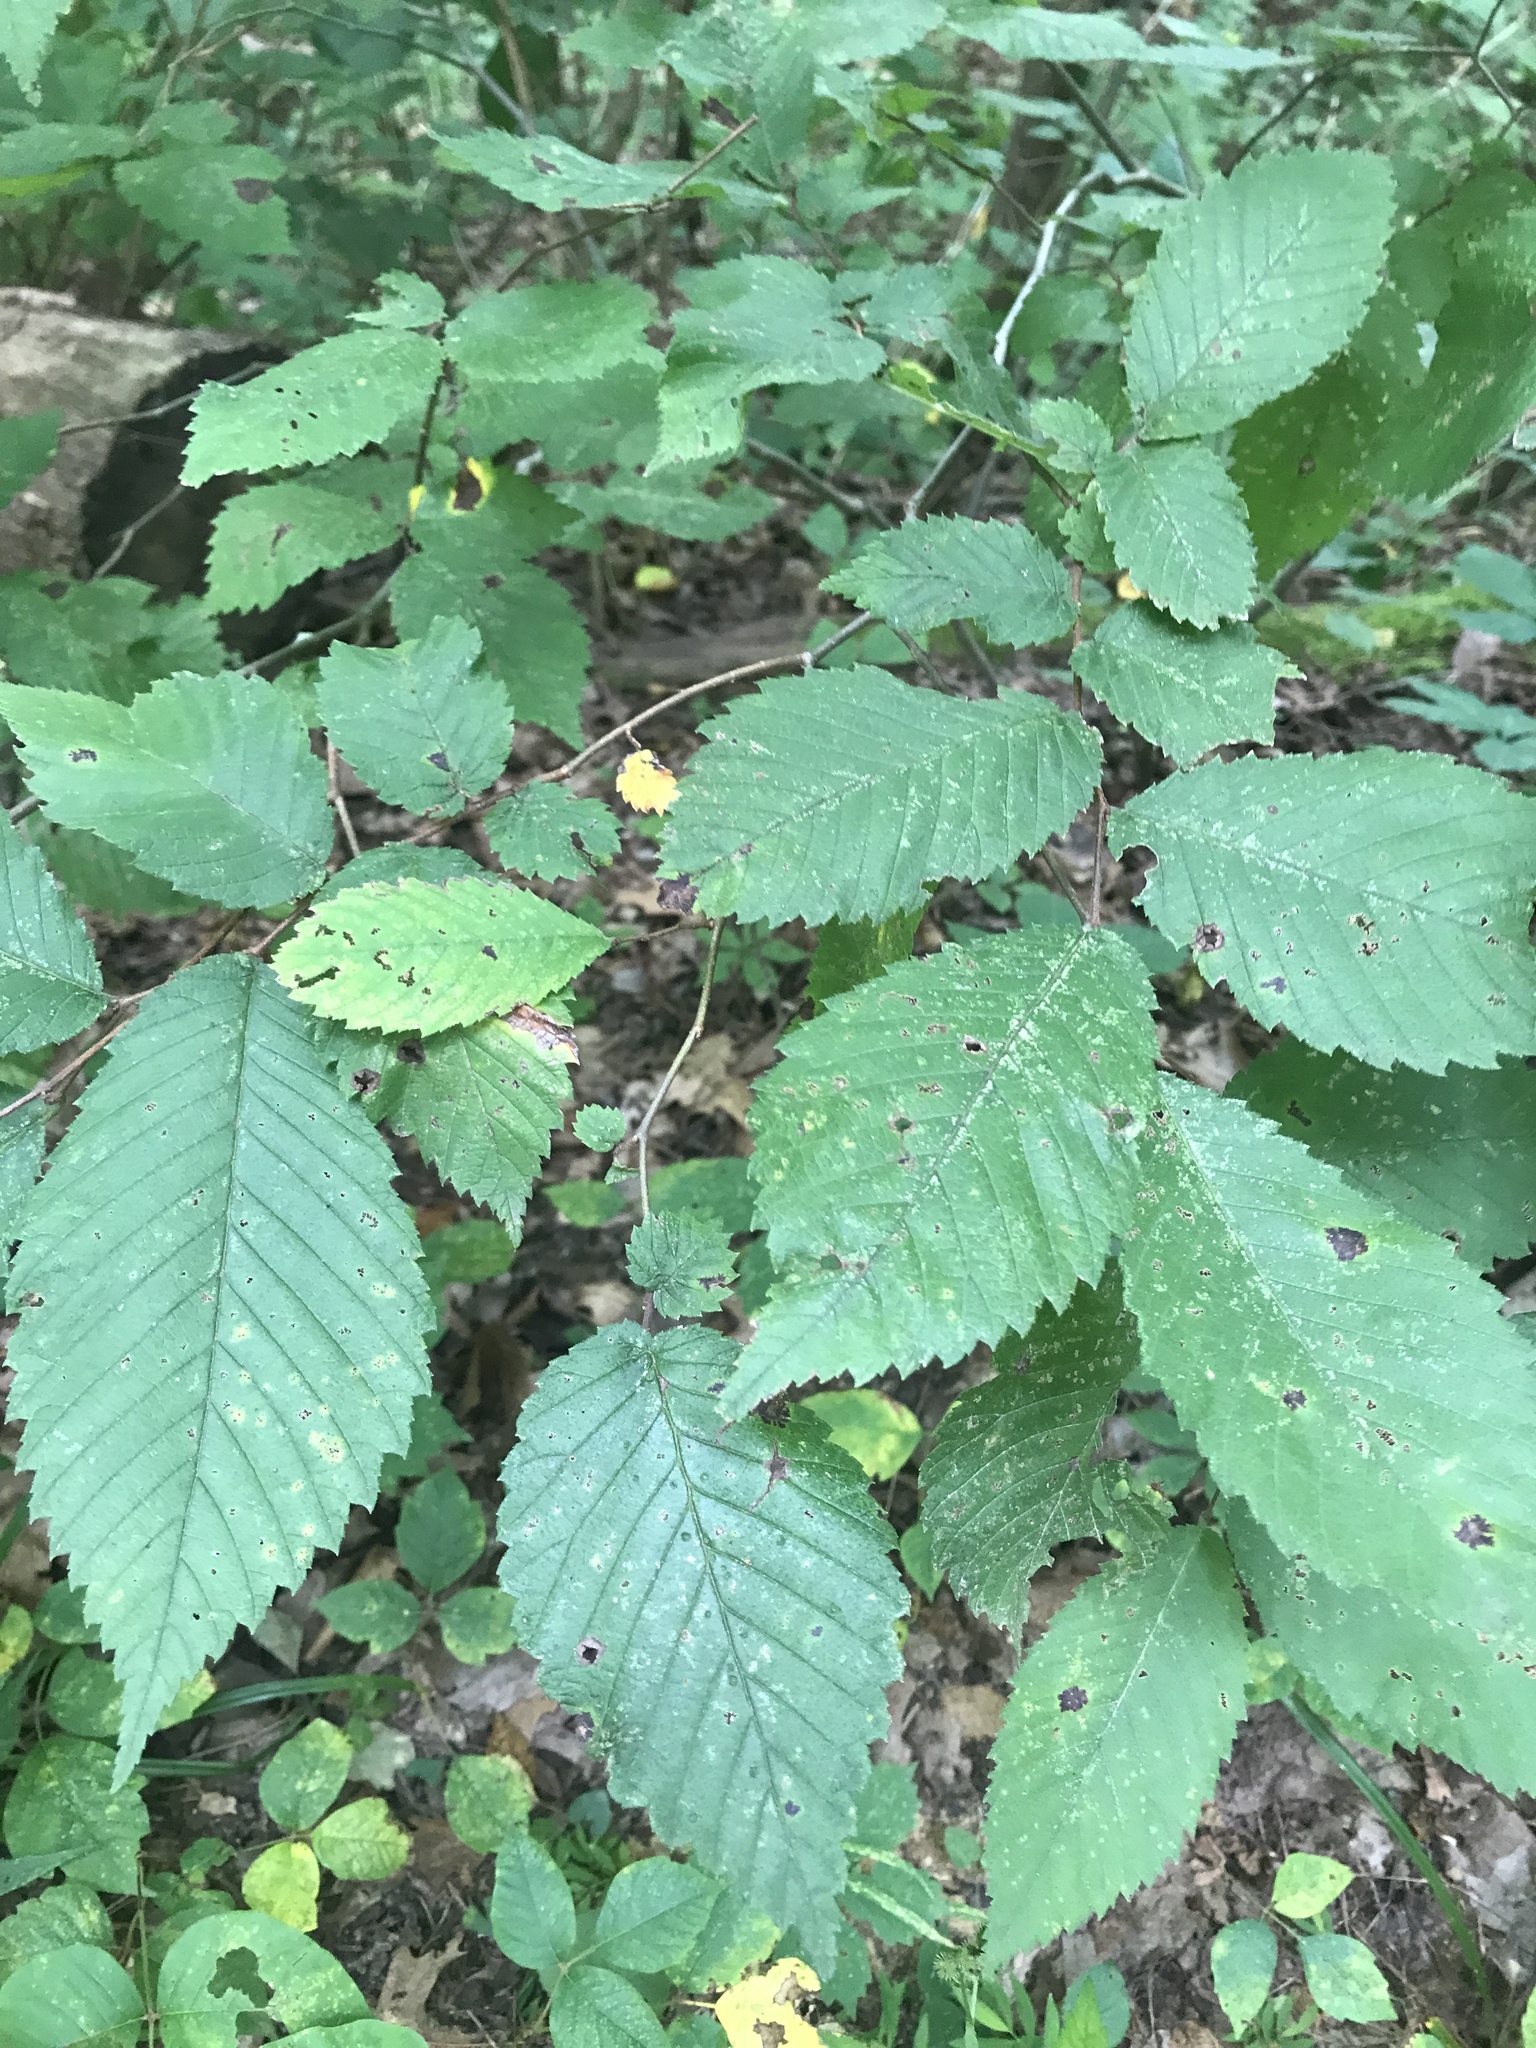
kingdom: Plantae
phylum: Tracheophyta
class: Magnoliopsida
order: Rosales
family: Ulmaceae
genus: Ulmus
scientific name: Ulmus
